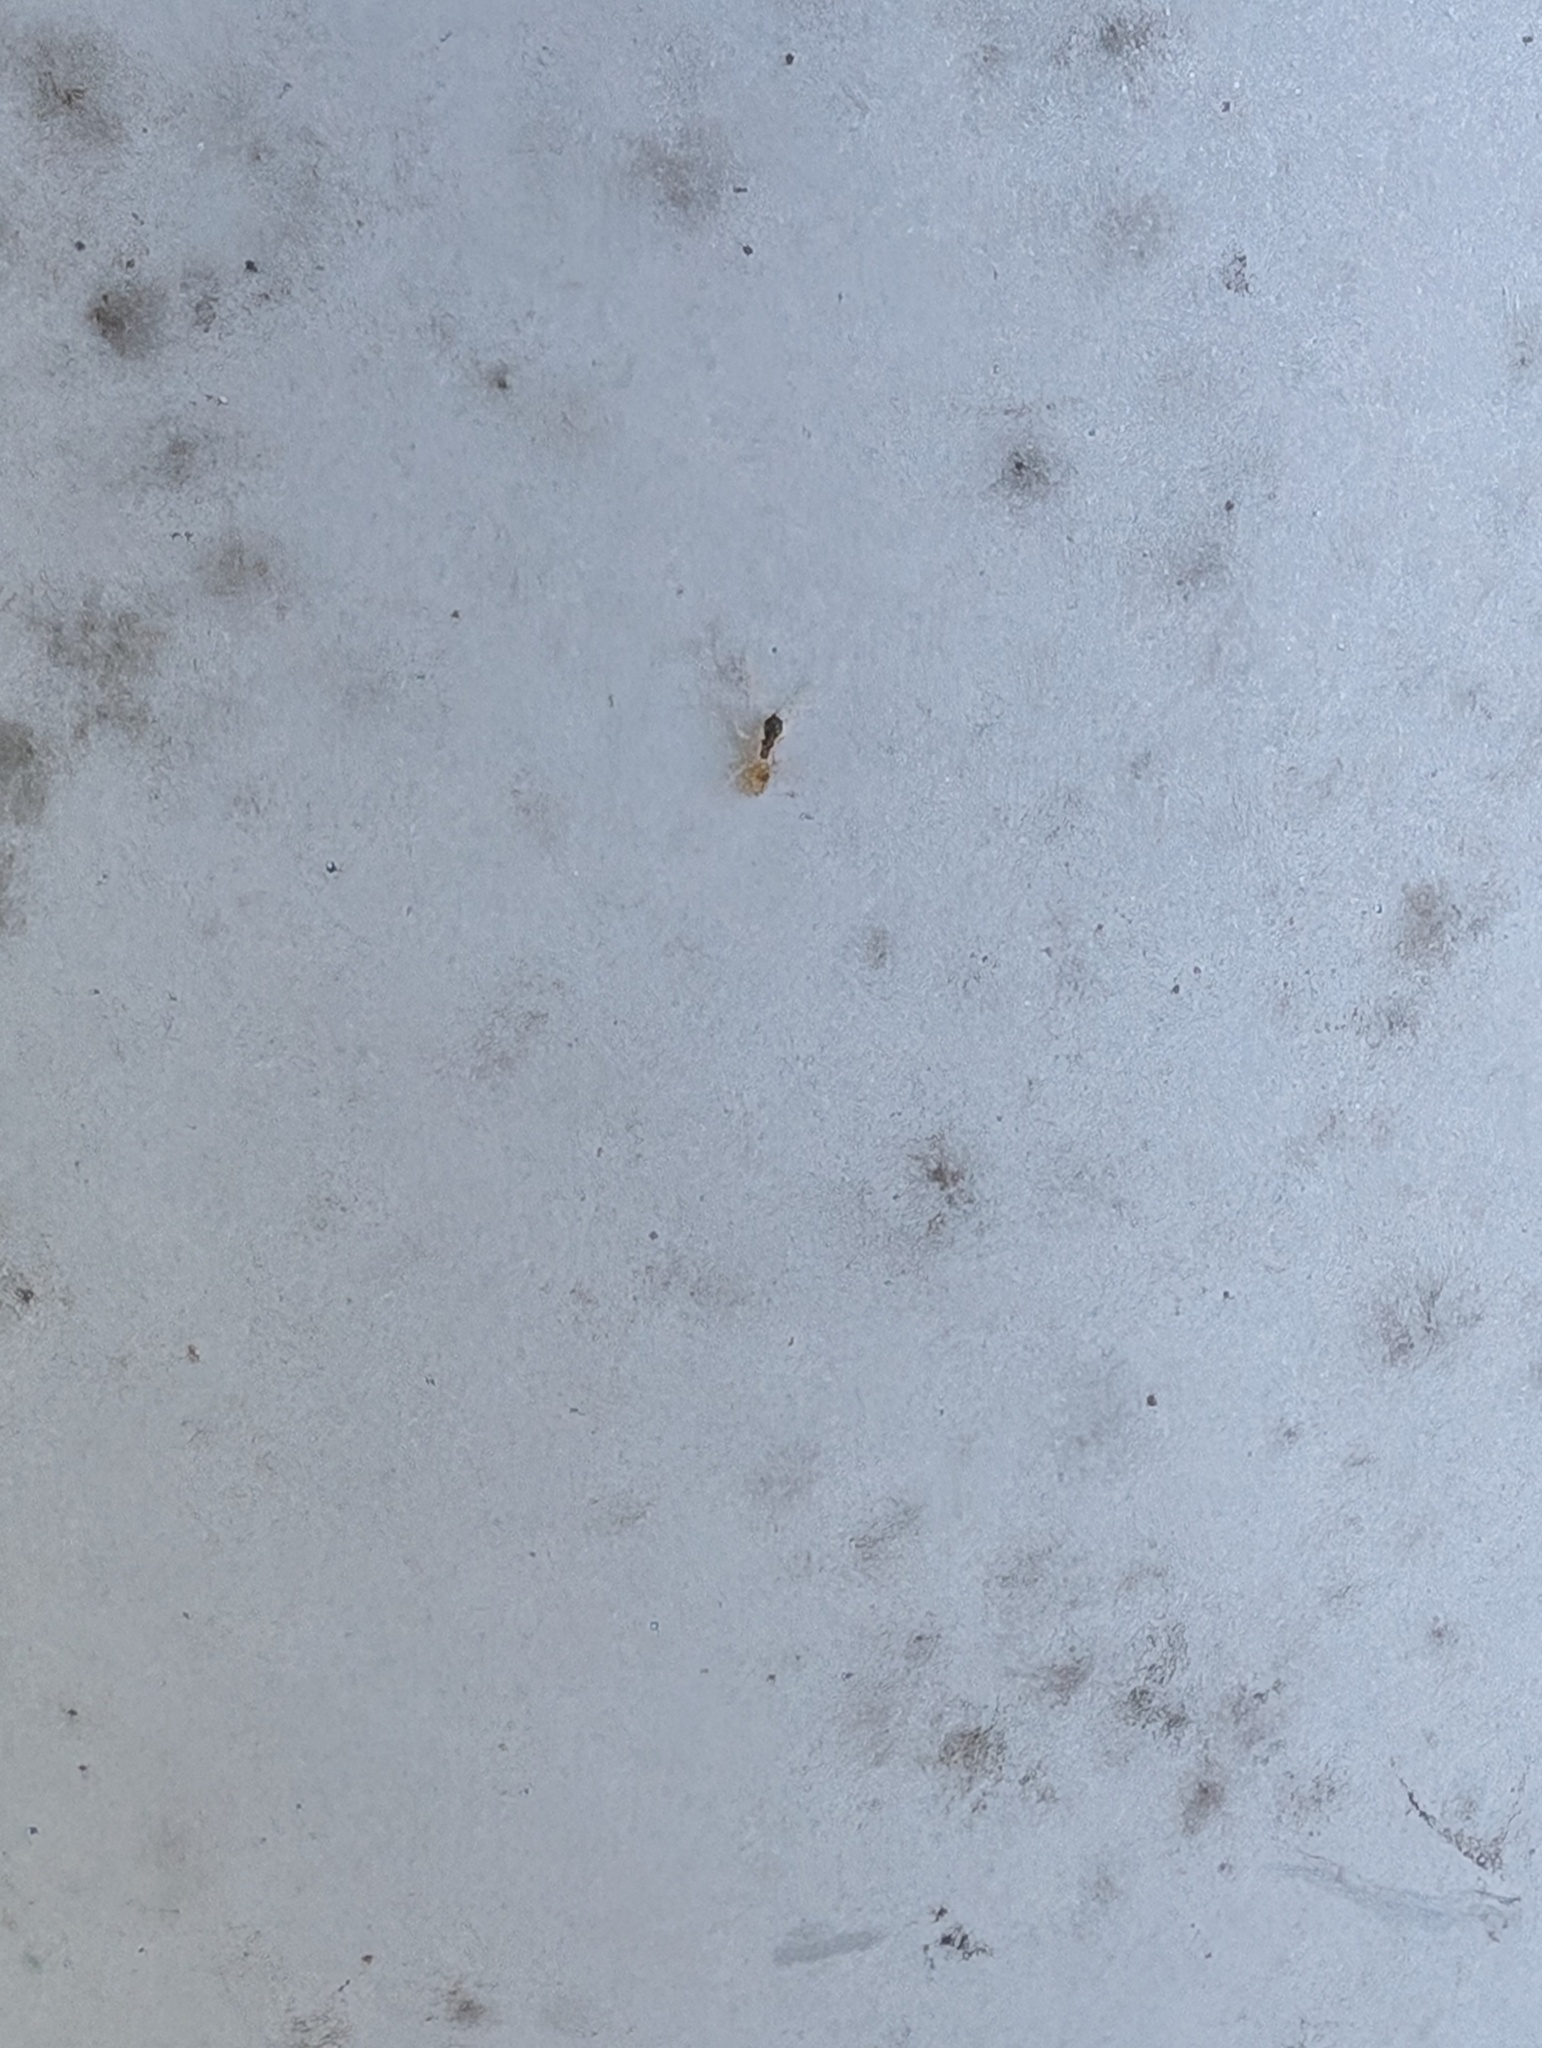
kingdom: Animalia
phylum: Arthropoda
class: Insecta
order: Hymenoptera
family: Formicidae
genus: Tapinoma
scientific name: Tapinoma melanocephalum
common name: Ghost ant
